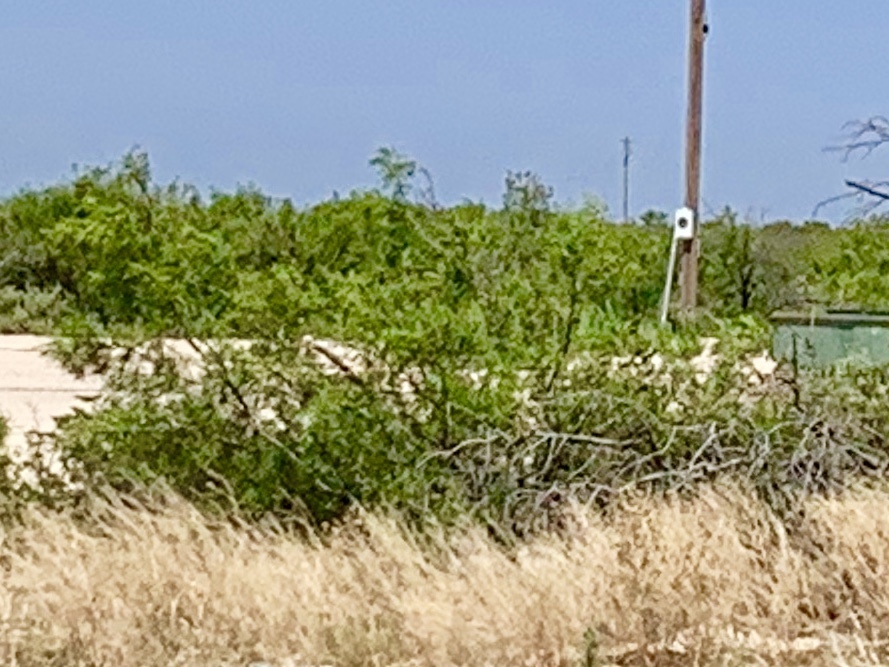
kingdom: Plantae
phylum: Tracheophyta
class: Magnoliopsida
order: Zygophyllales
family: Zygophyllaceae
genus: Larrea
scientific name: Larrea tridentata
